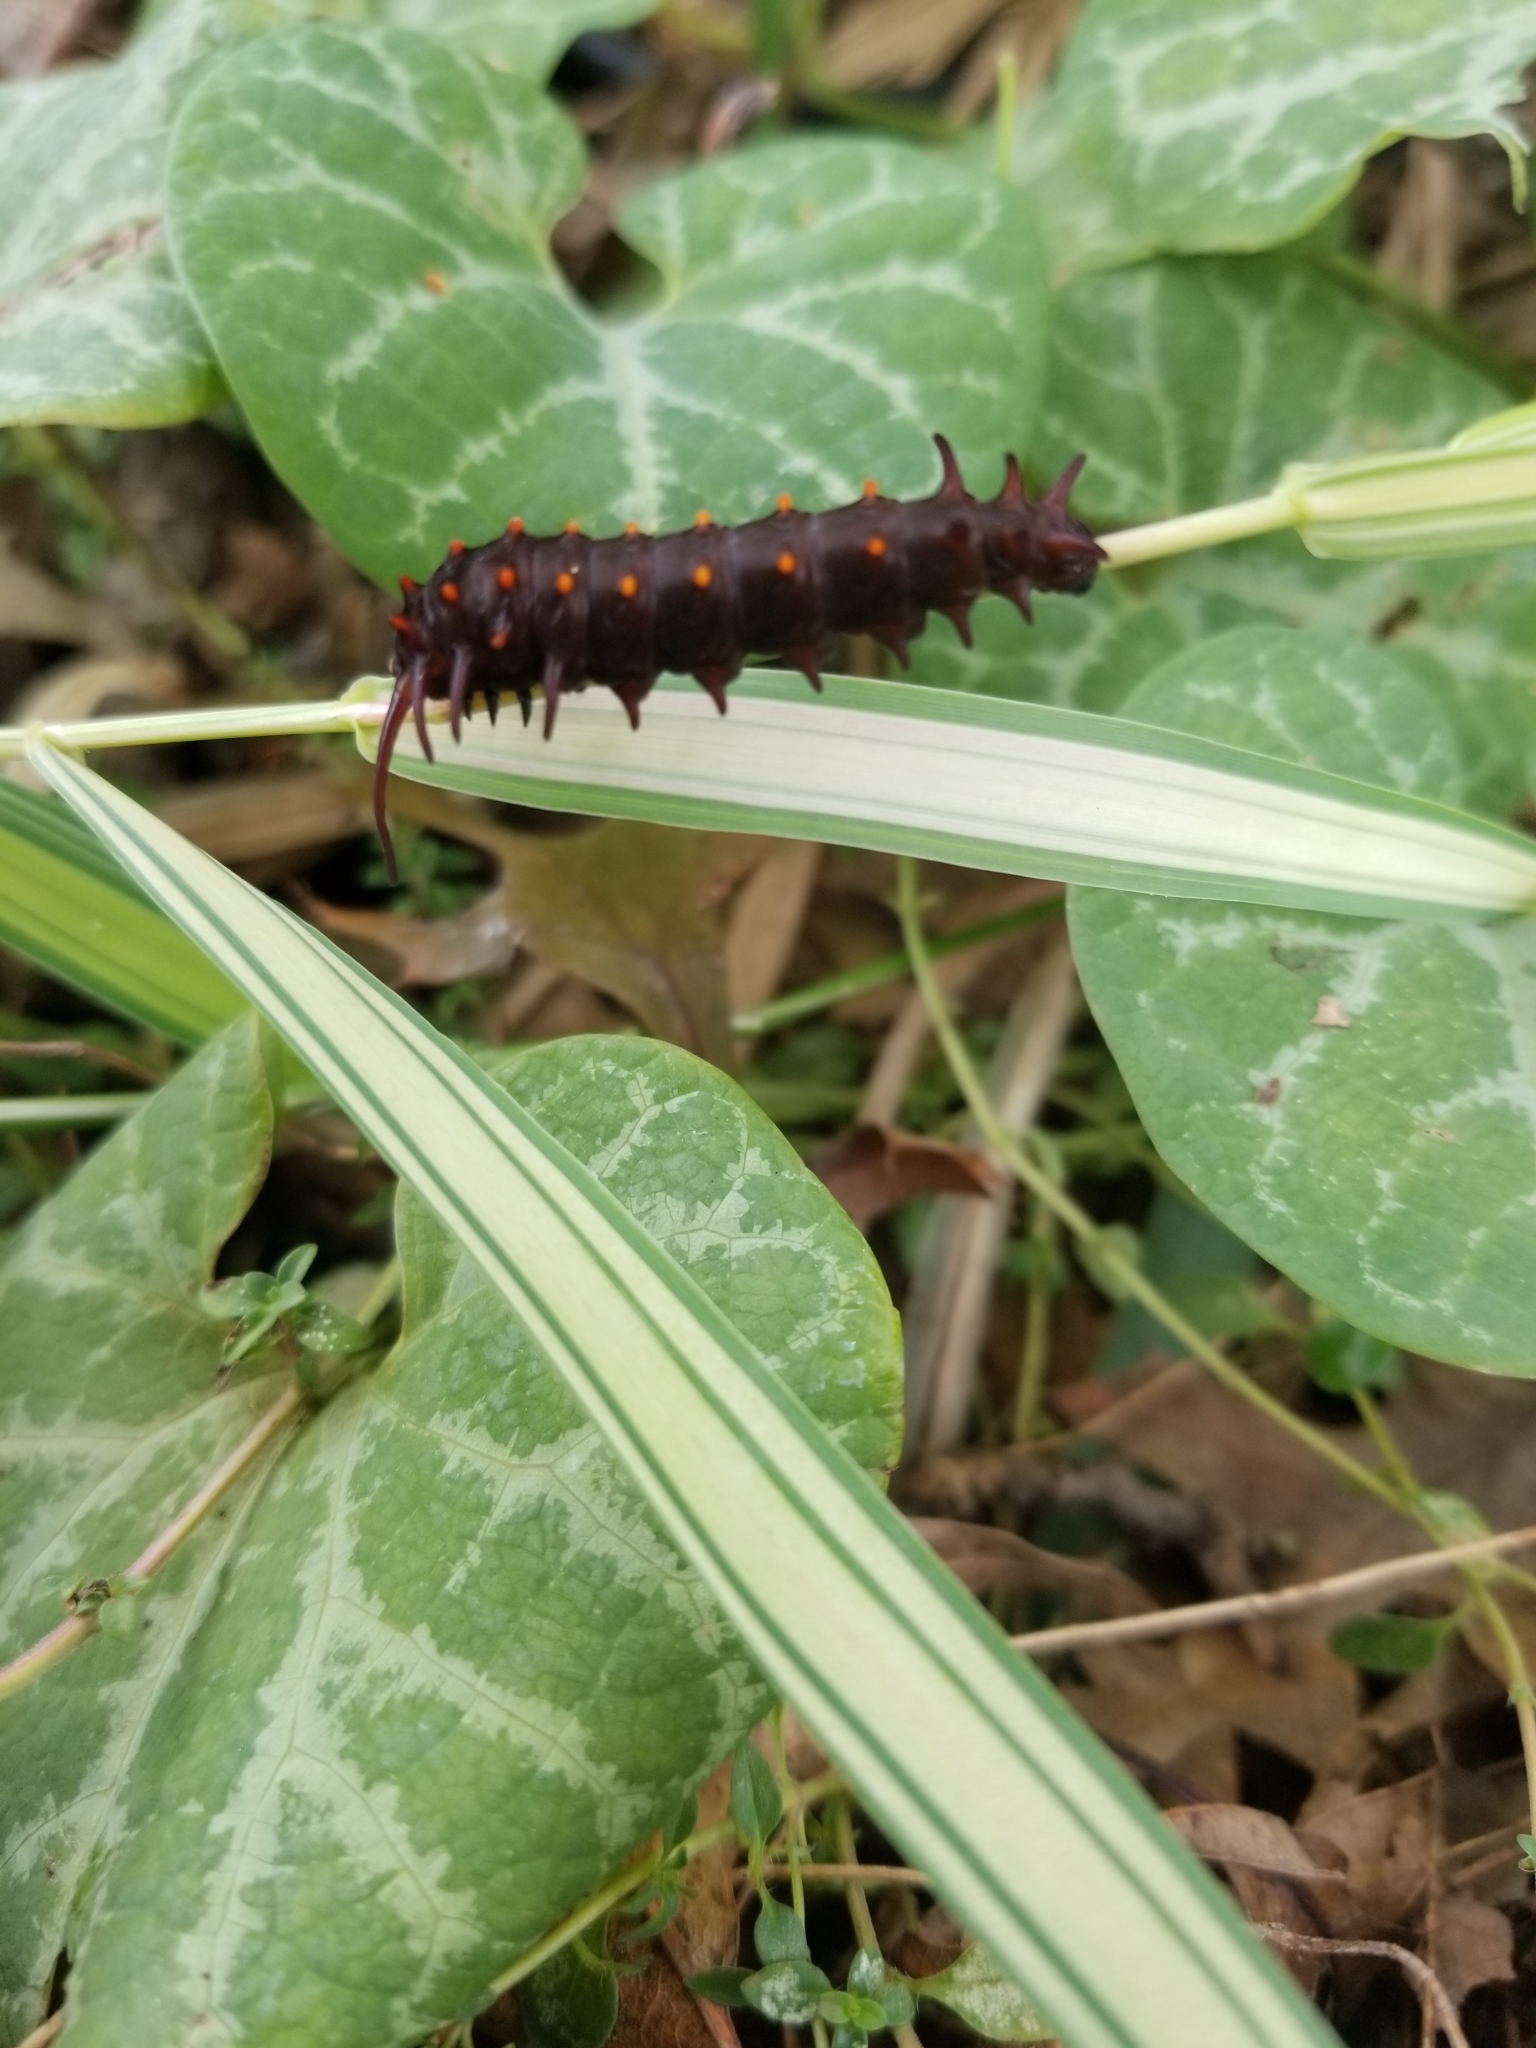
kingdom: Animalia
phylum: Arthropoda
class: Insecta
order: Lepidoptera
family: Papilionidae
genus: Battus
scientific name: Battus philenor
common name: Pipevine swallowtail
